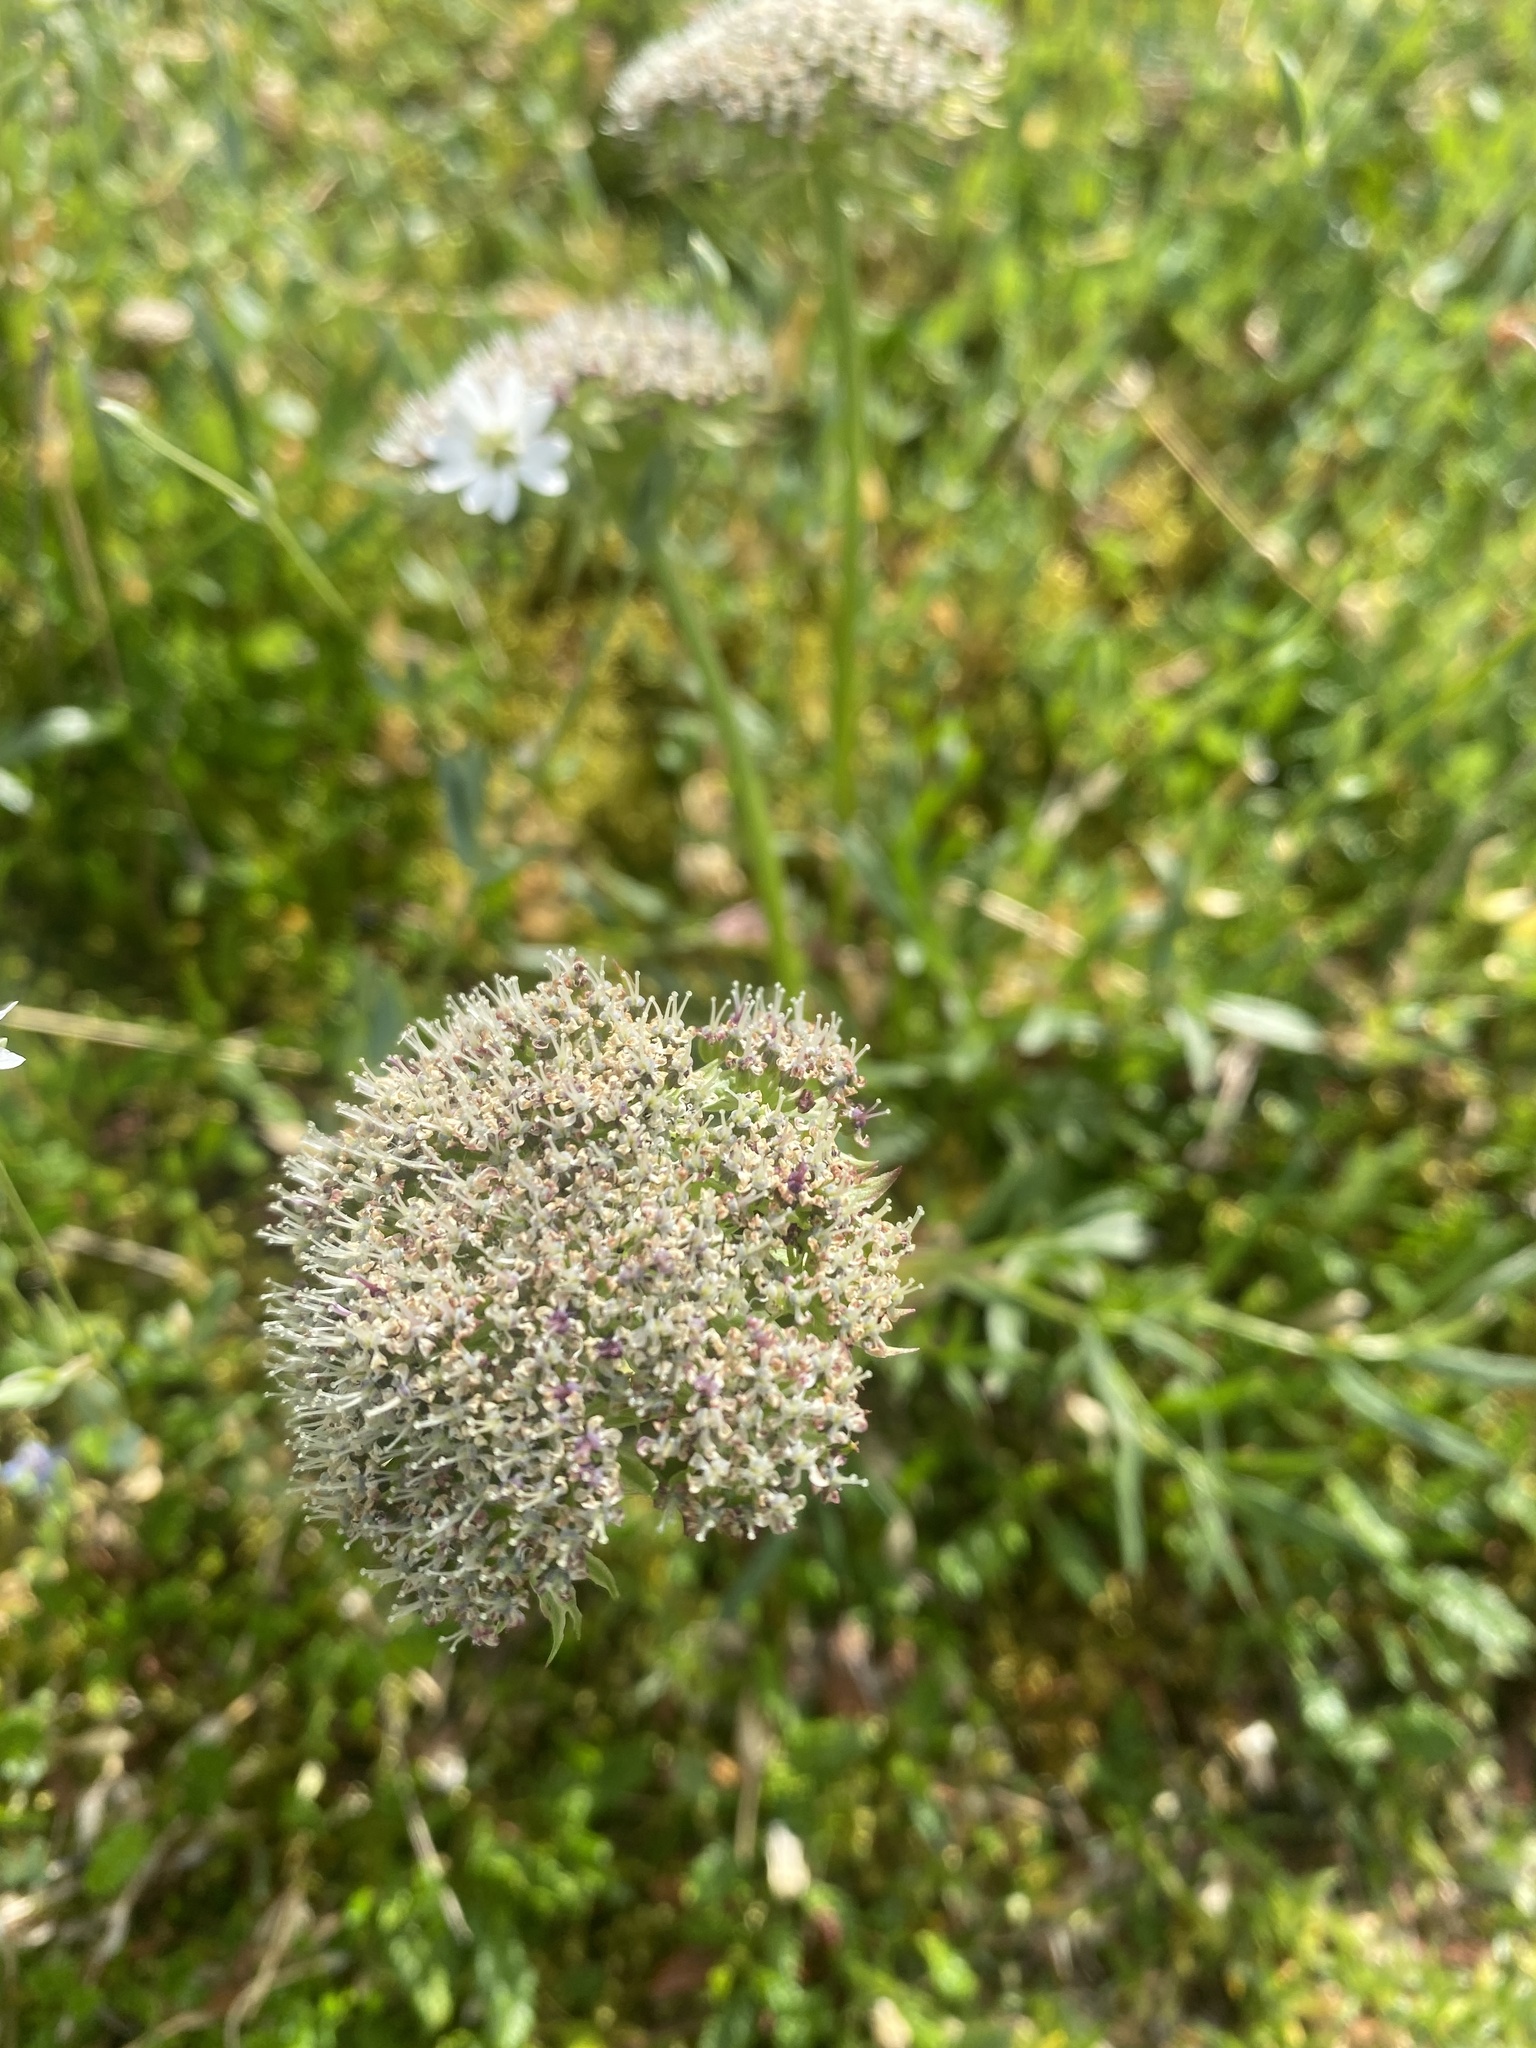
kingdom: Plantae
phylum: Tracheophyta
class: Magnoliopsida
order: Apiales
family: Apiaceae
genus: Pachypleurum
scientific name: Pachypleurum mutellinoides
